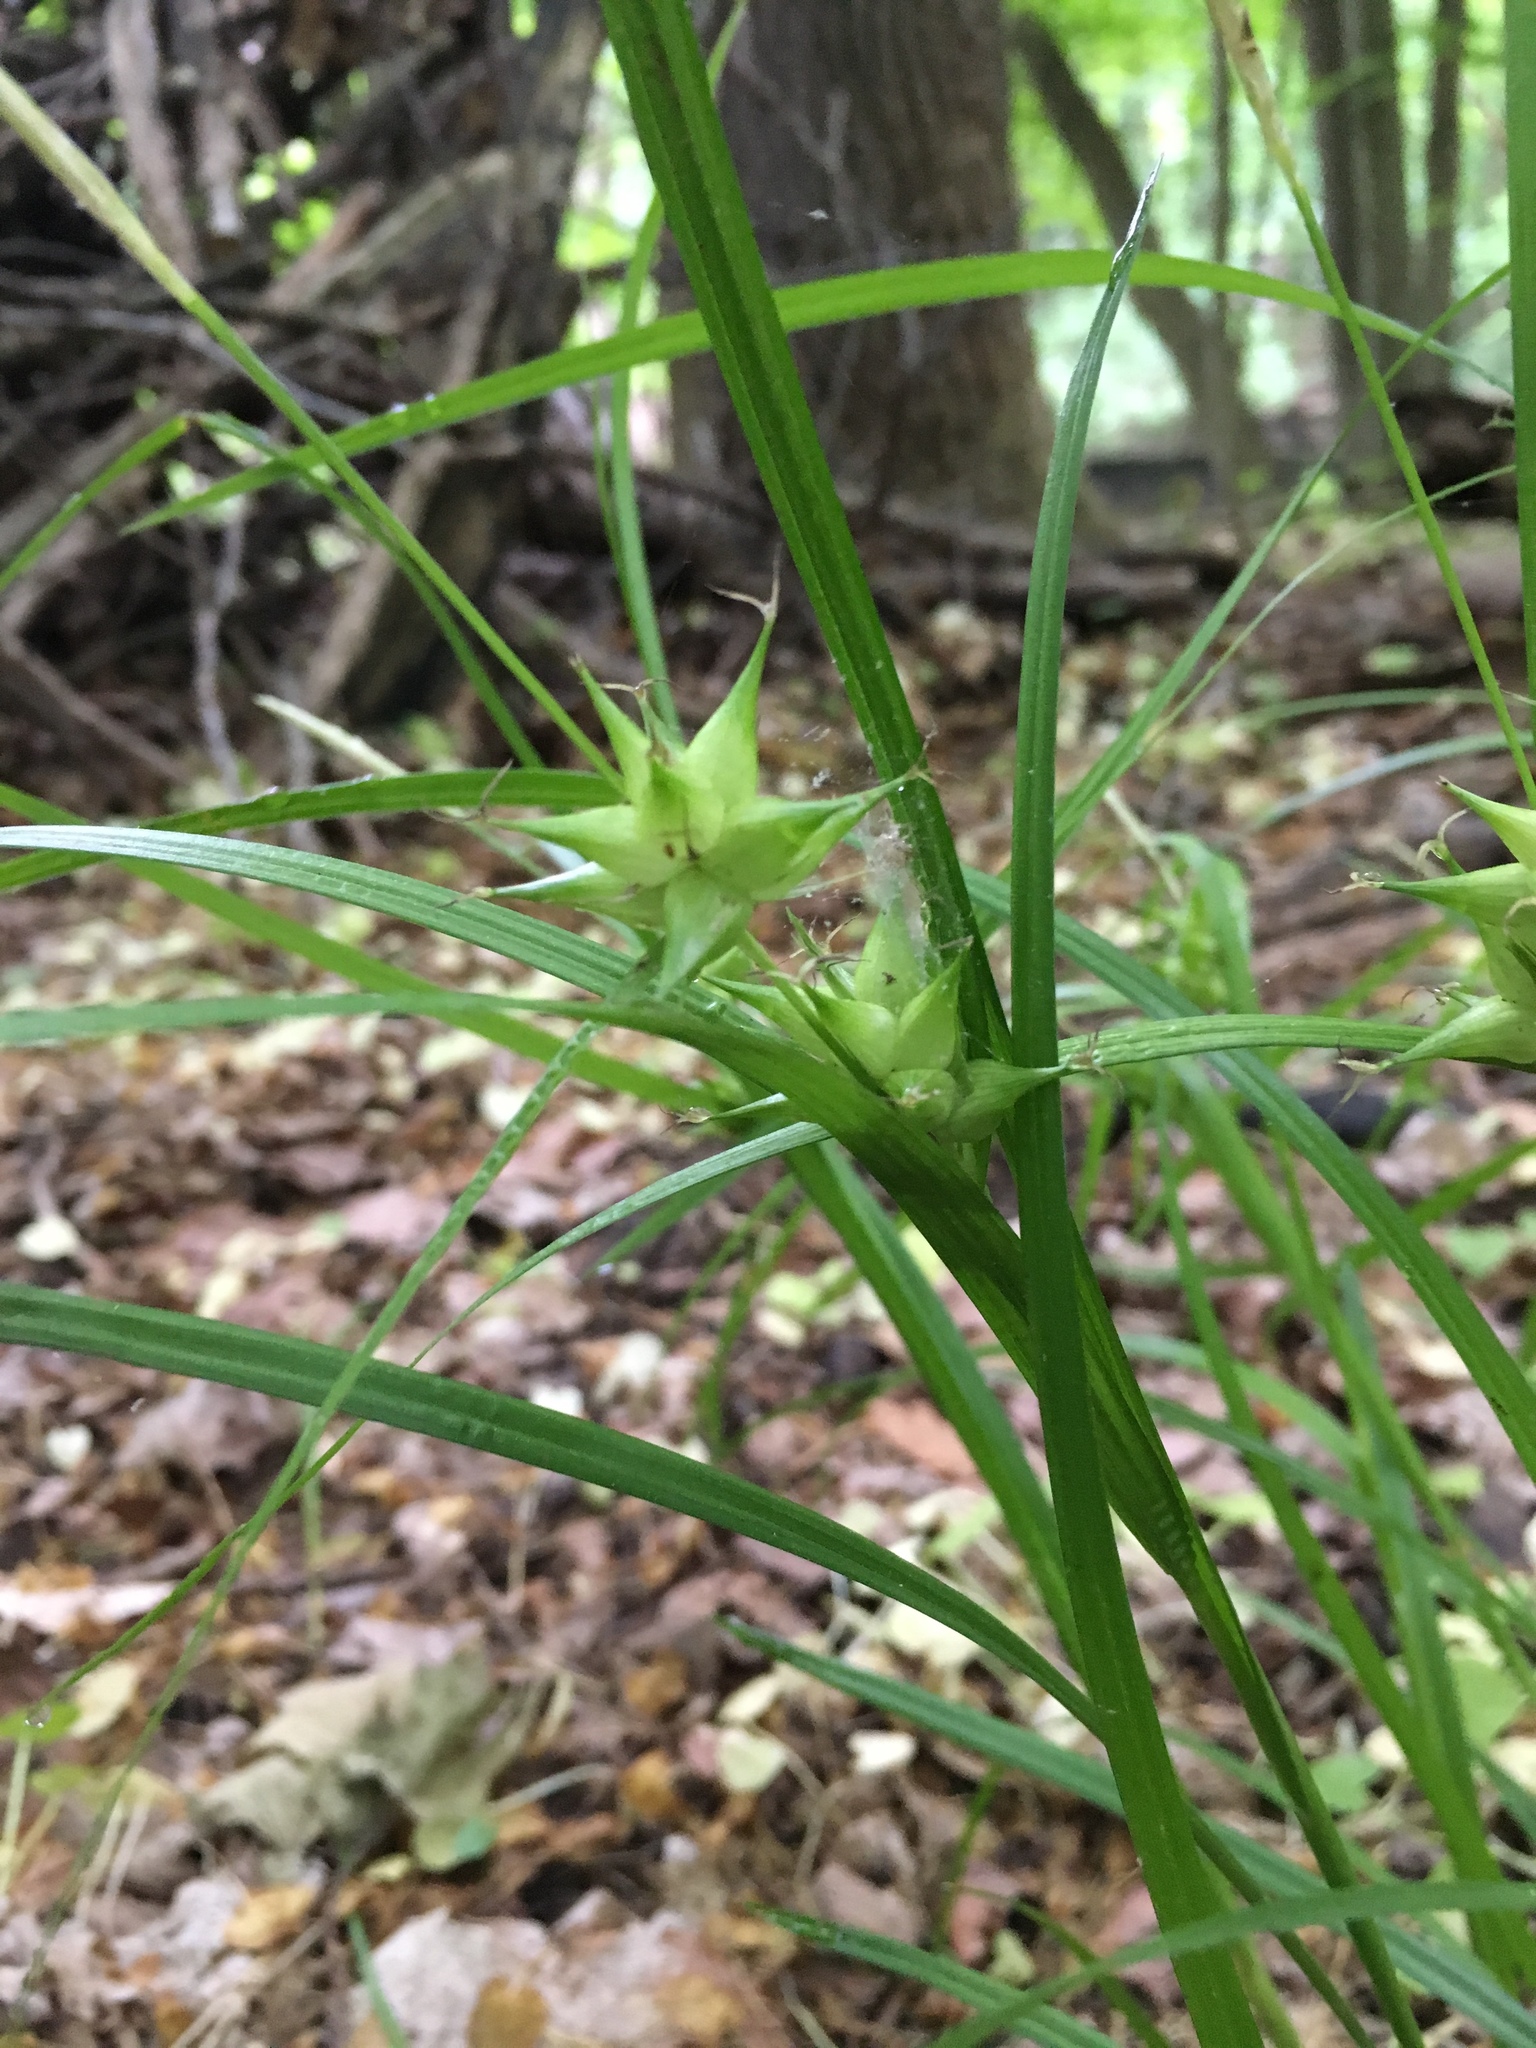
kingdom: Plantae
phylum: Tracheophyta
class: Liliopsida
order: Poales
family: Cyperaceae
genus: Carex
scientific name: Carex intumescens
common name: Greater bladder sedge
